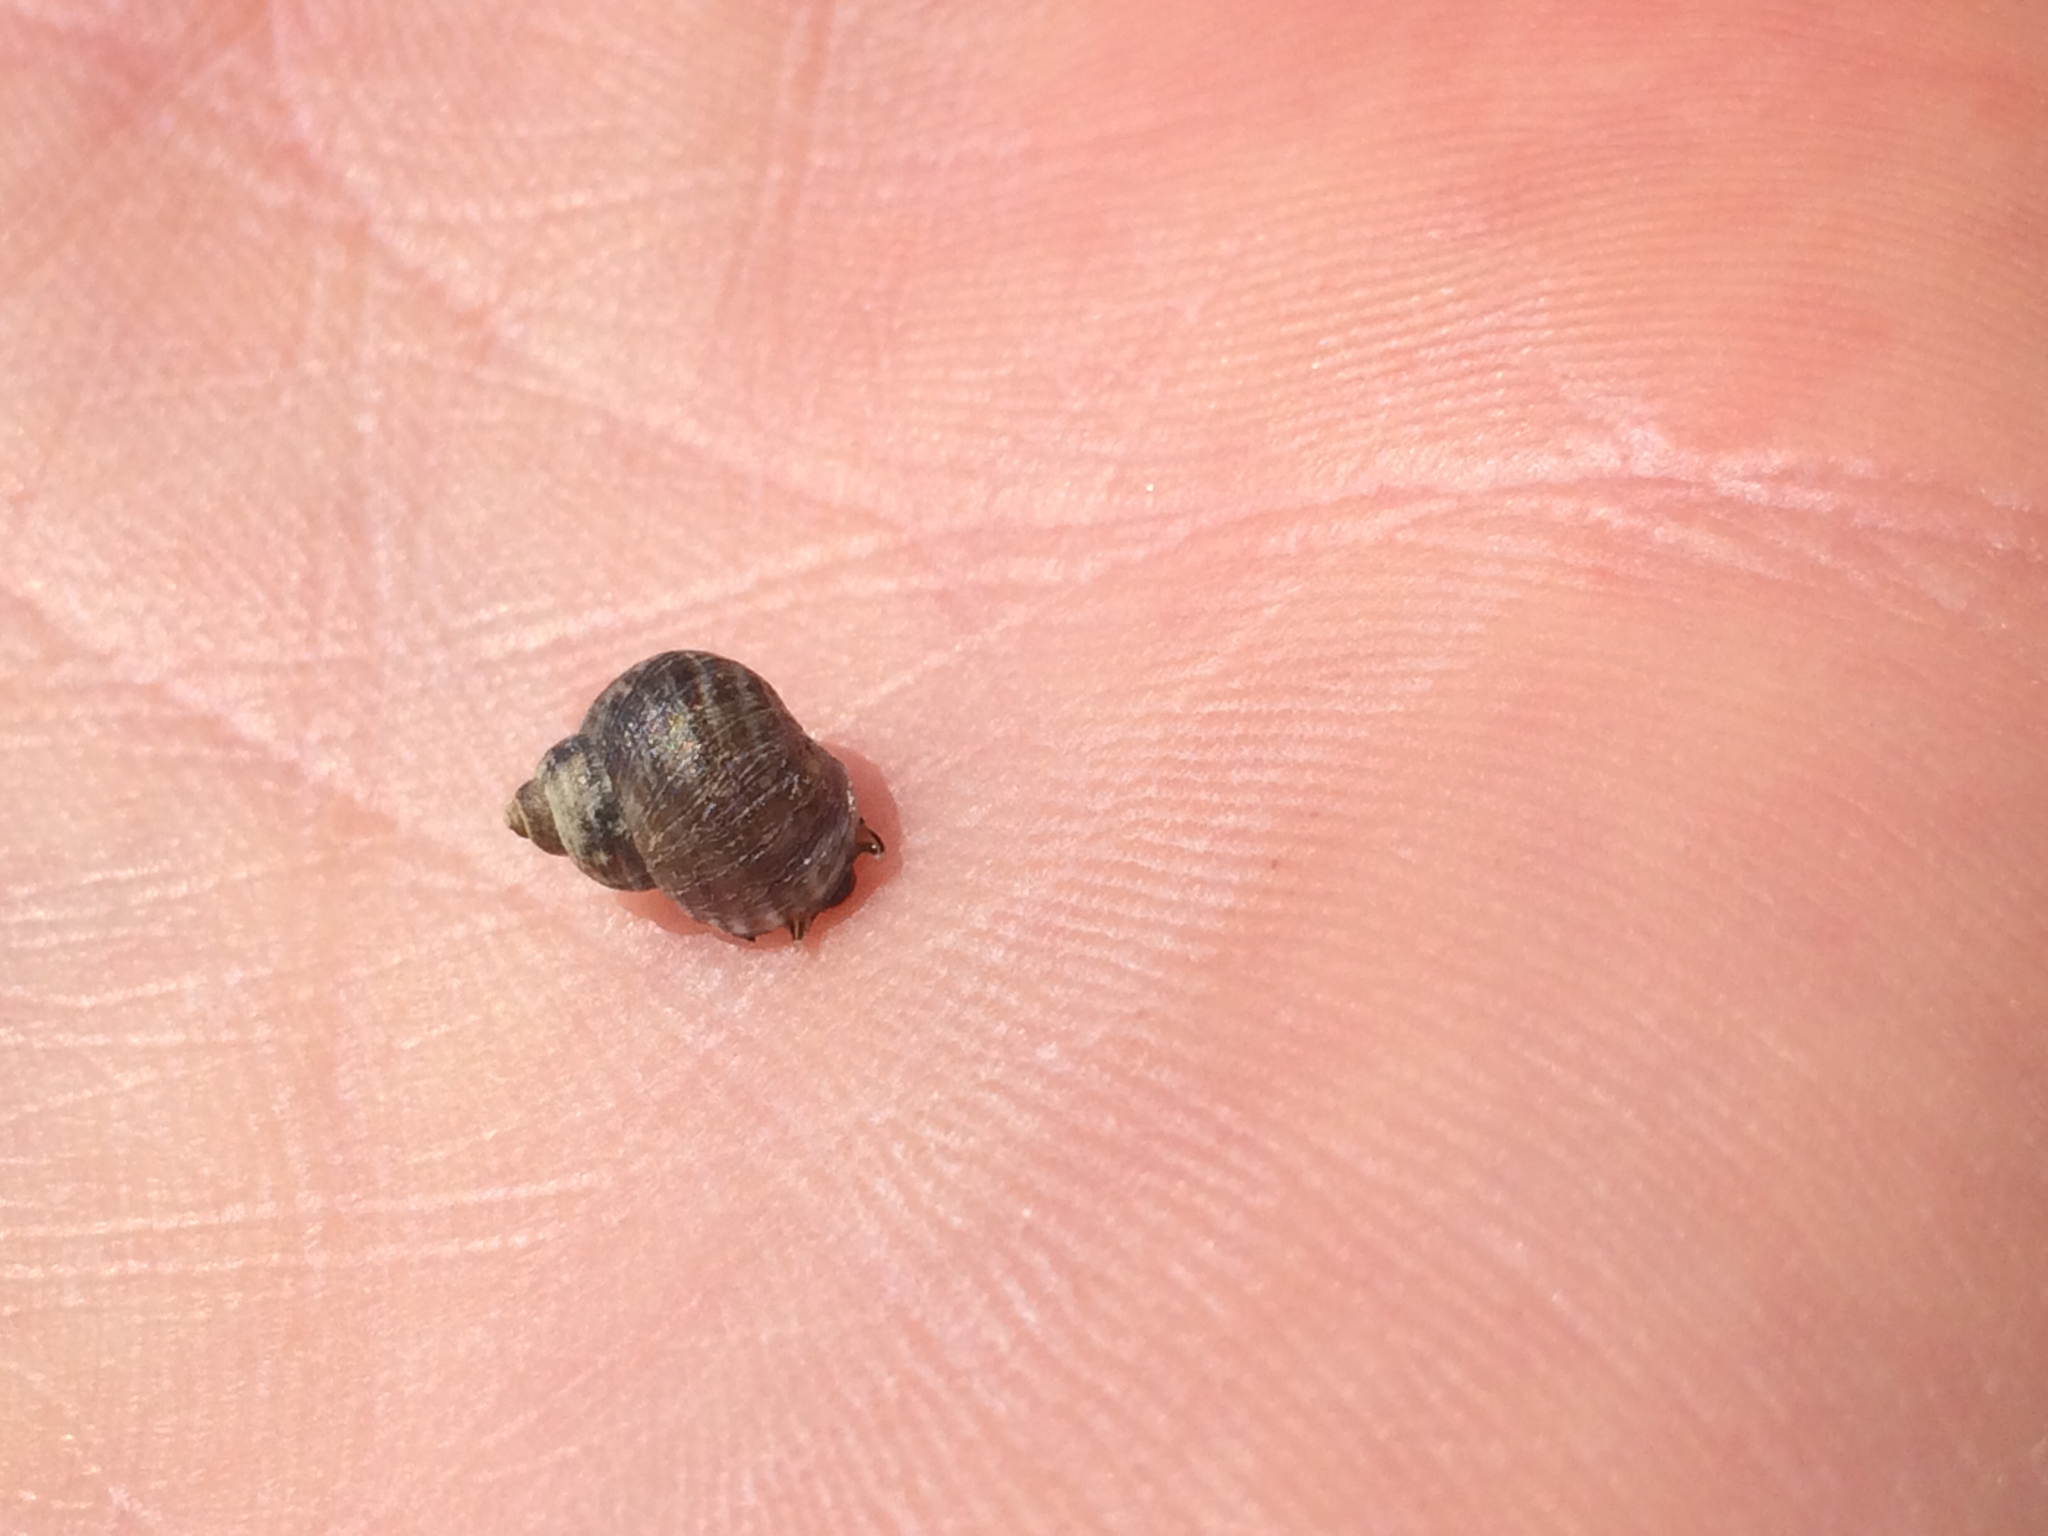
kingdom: Animalia
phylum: Mollusca
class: Gastropoda
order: Littorinimorpha
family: Littorinidae
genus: Littorina
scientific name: Littorina saxatilis
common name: Black-lined periwinkle
